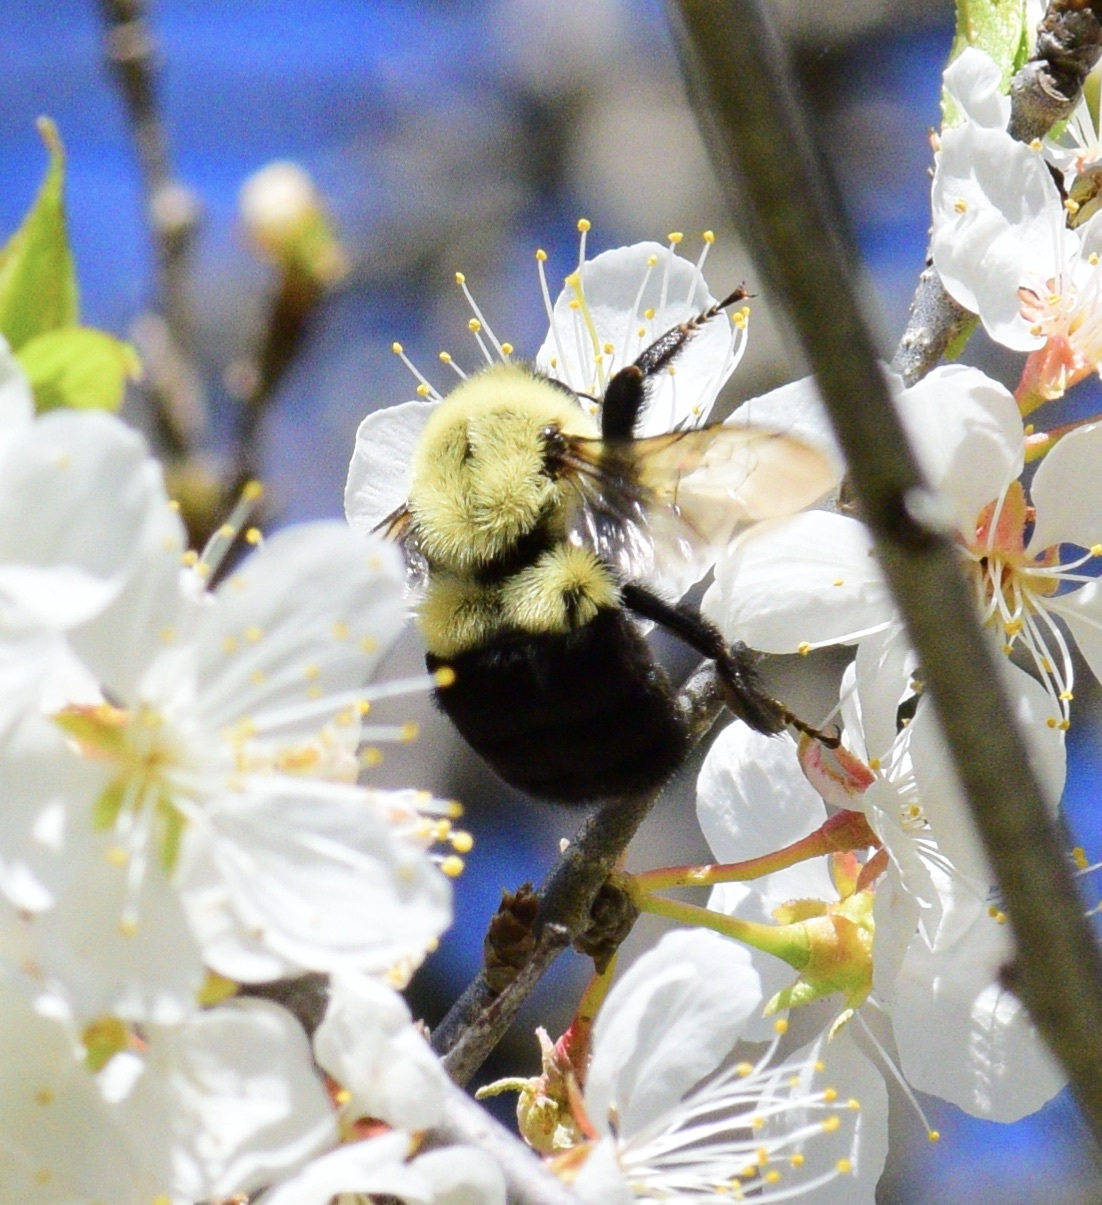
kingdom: Animalia
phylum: Arthropoda
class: Insecta
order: Hymenoptera
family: Apidae
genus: Bombus
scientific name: Bombus impatiens
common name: Common eastern bumble bee
